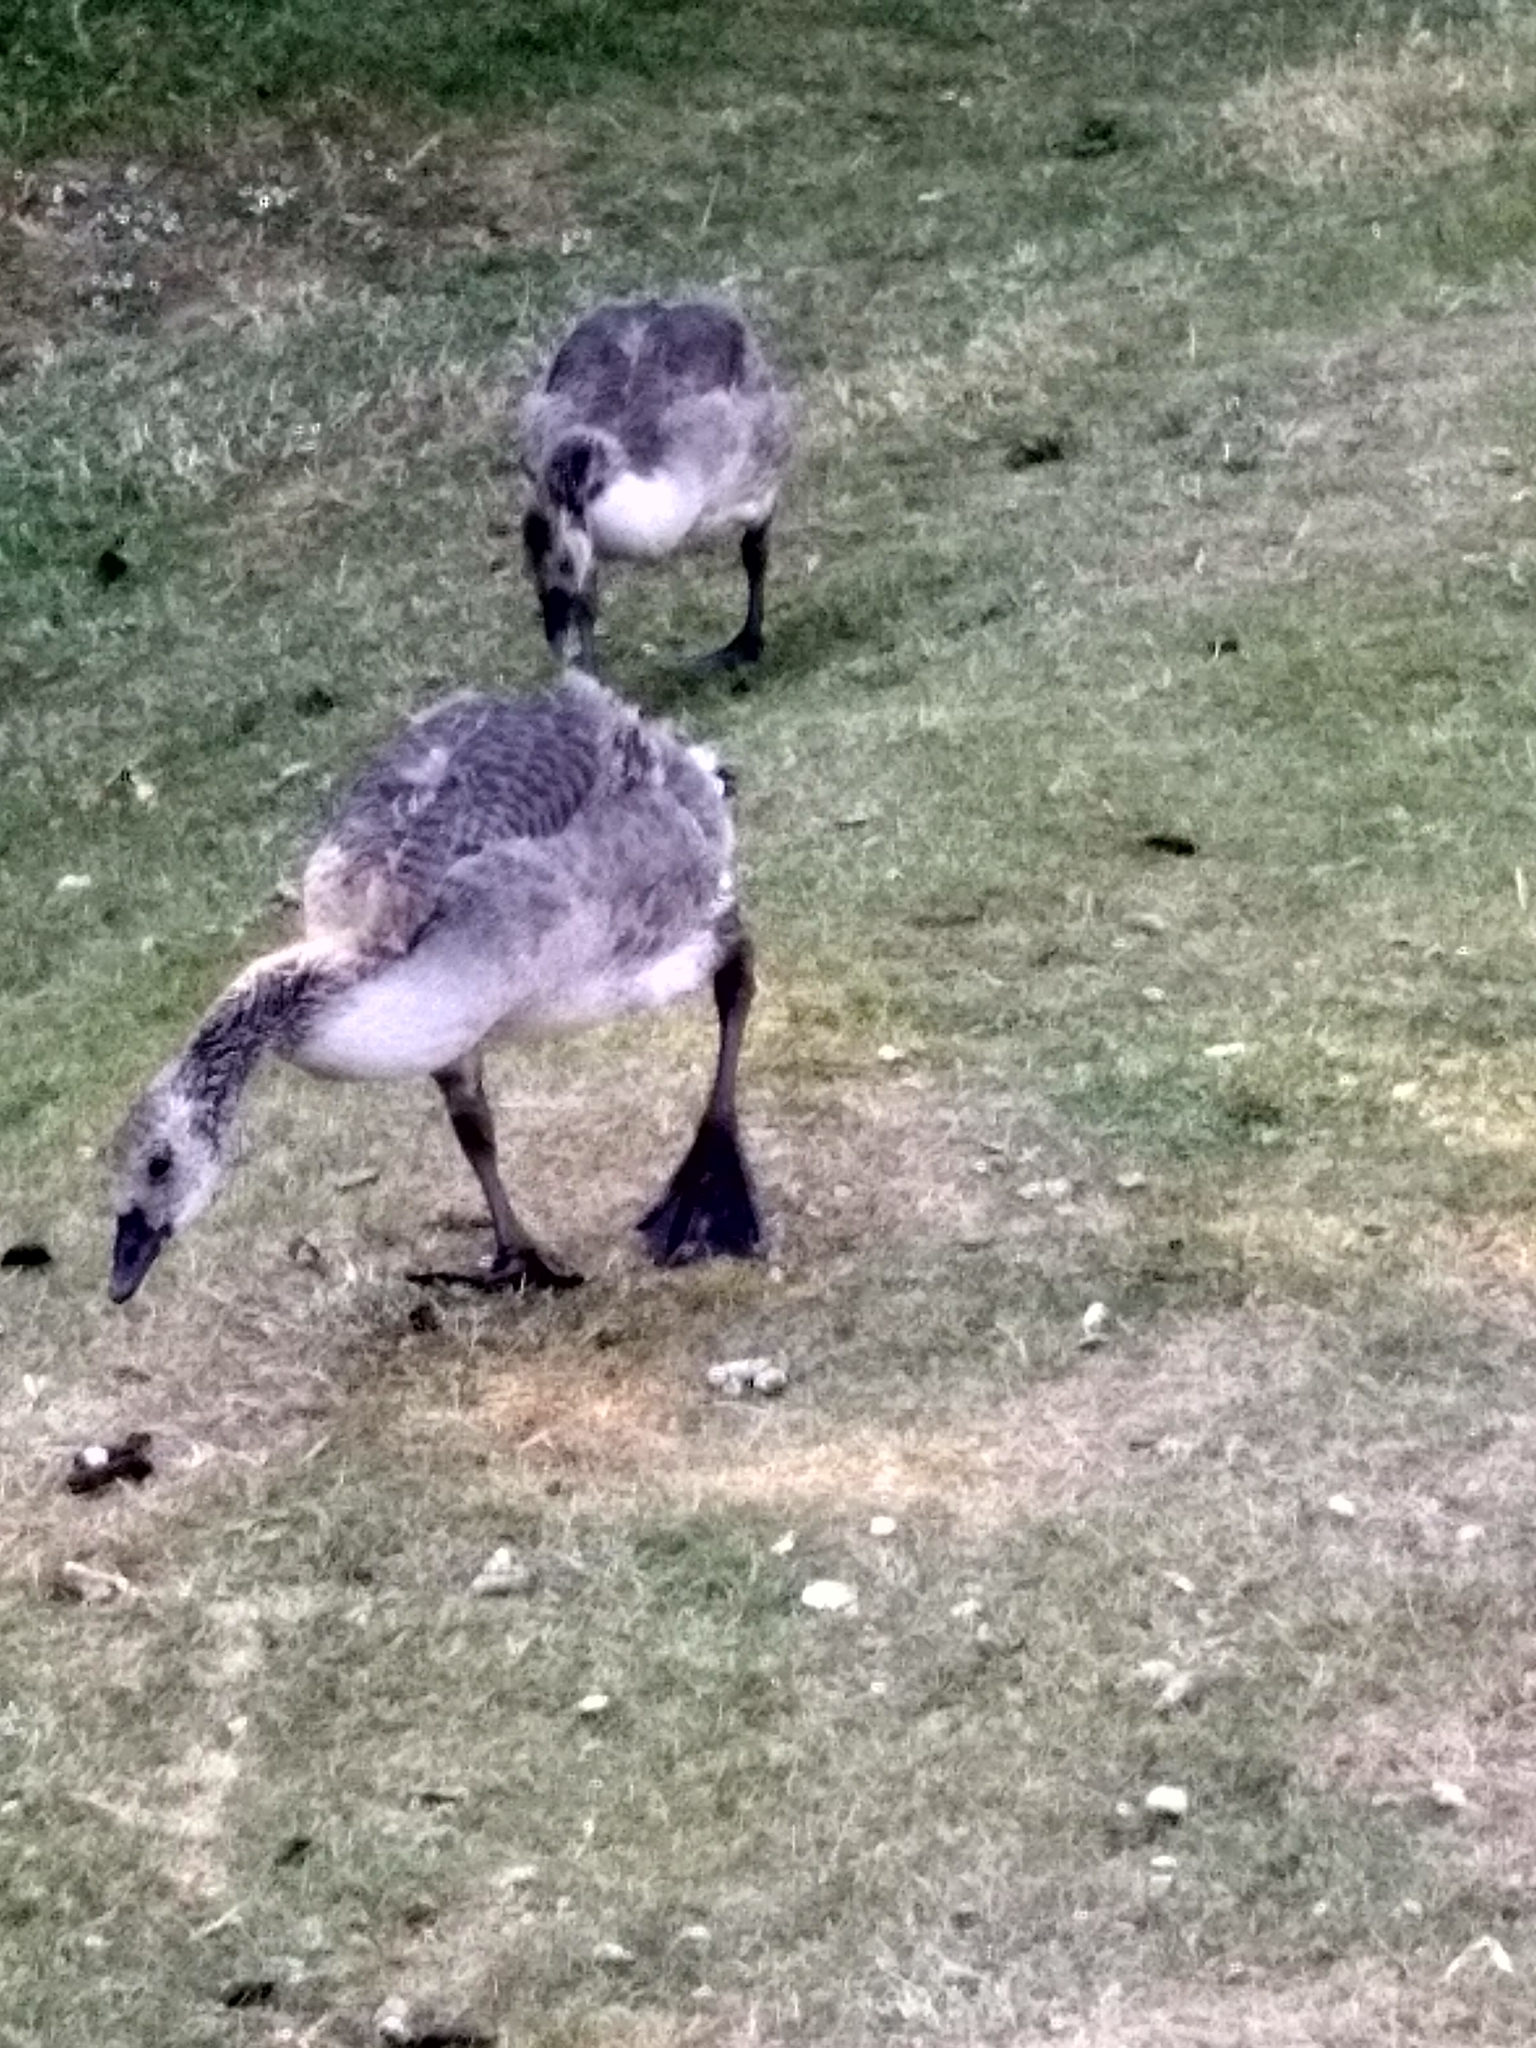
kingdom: Animalia
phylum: Chordata
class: Aves
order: Anseriformes
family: Anatidae
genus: Branta
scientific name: Branta canadensis
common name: Canada goose
